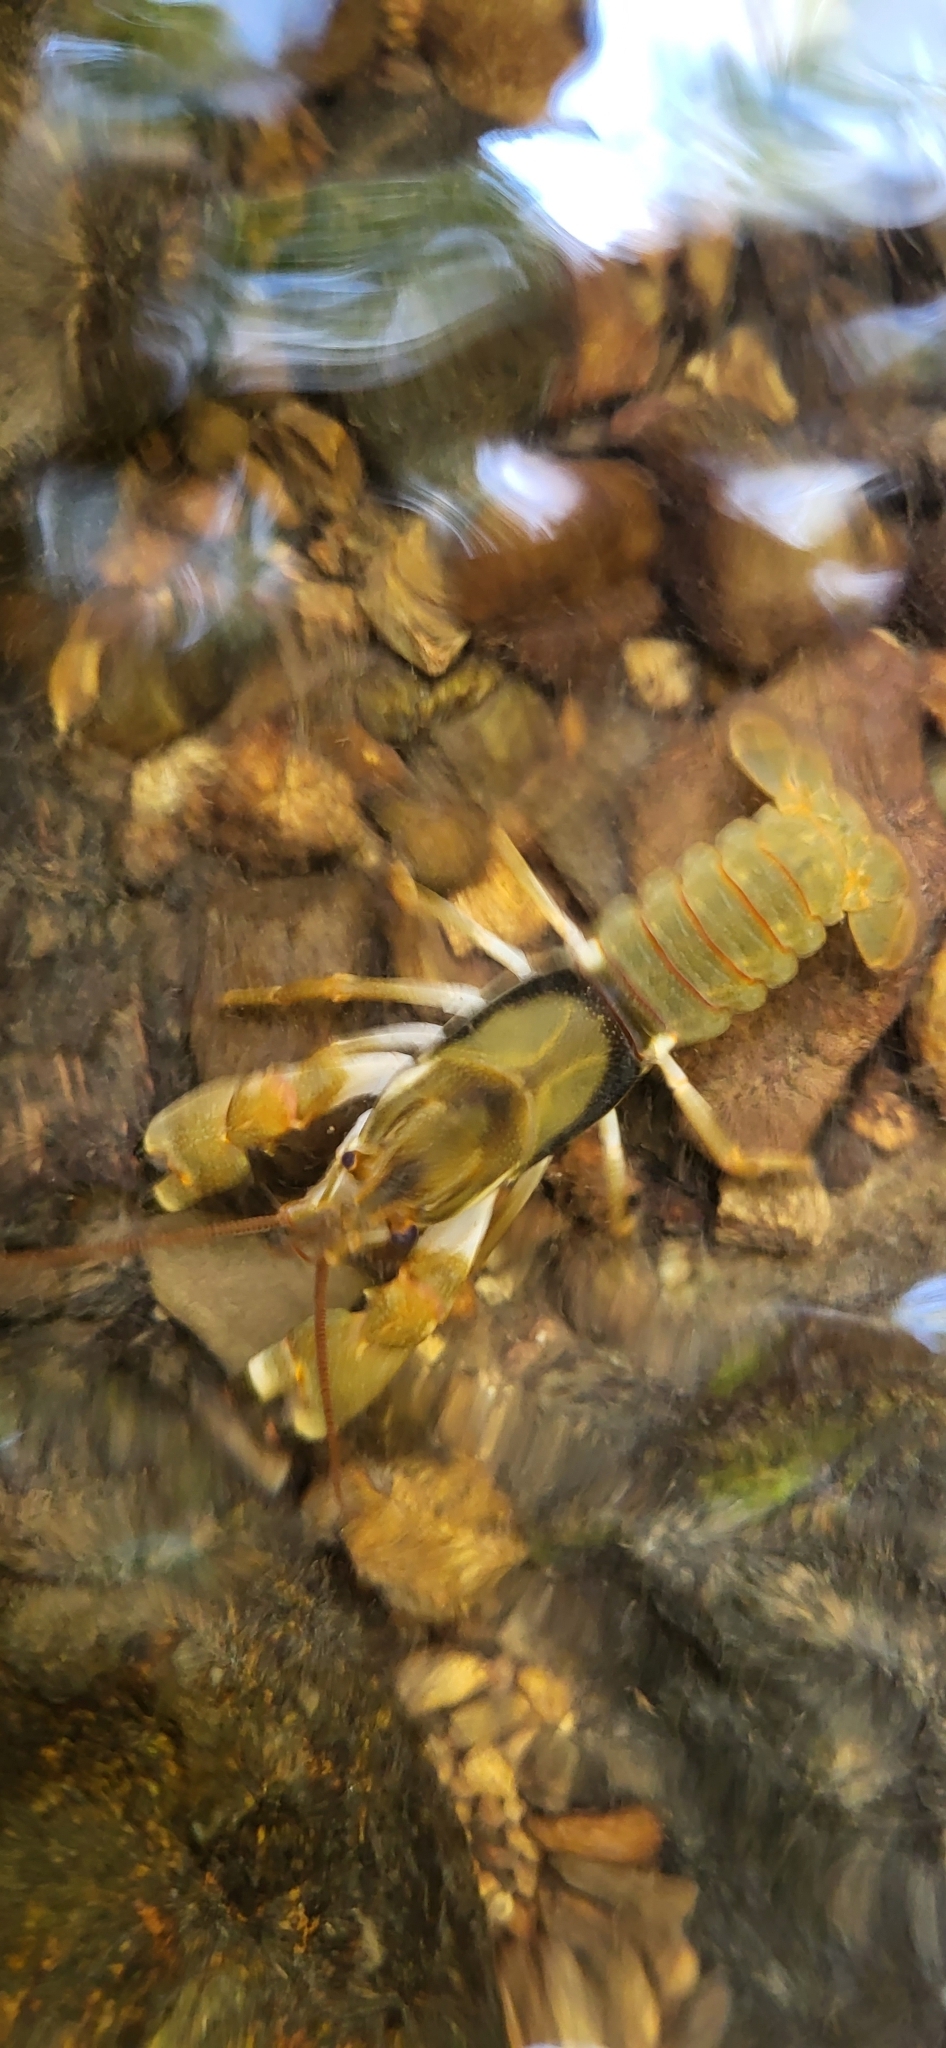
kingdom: Animalia
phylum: Arthropoda
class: Malacostraca
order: Decapoda
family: Cambaridae
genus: Faxonius
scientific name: Faxonius durelli
